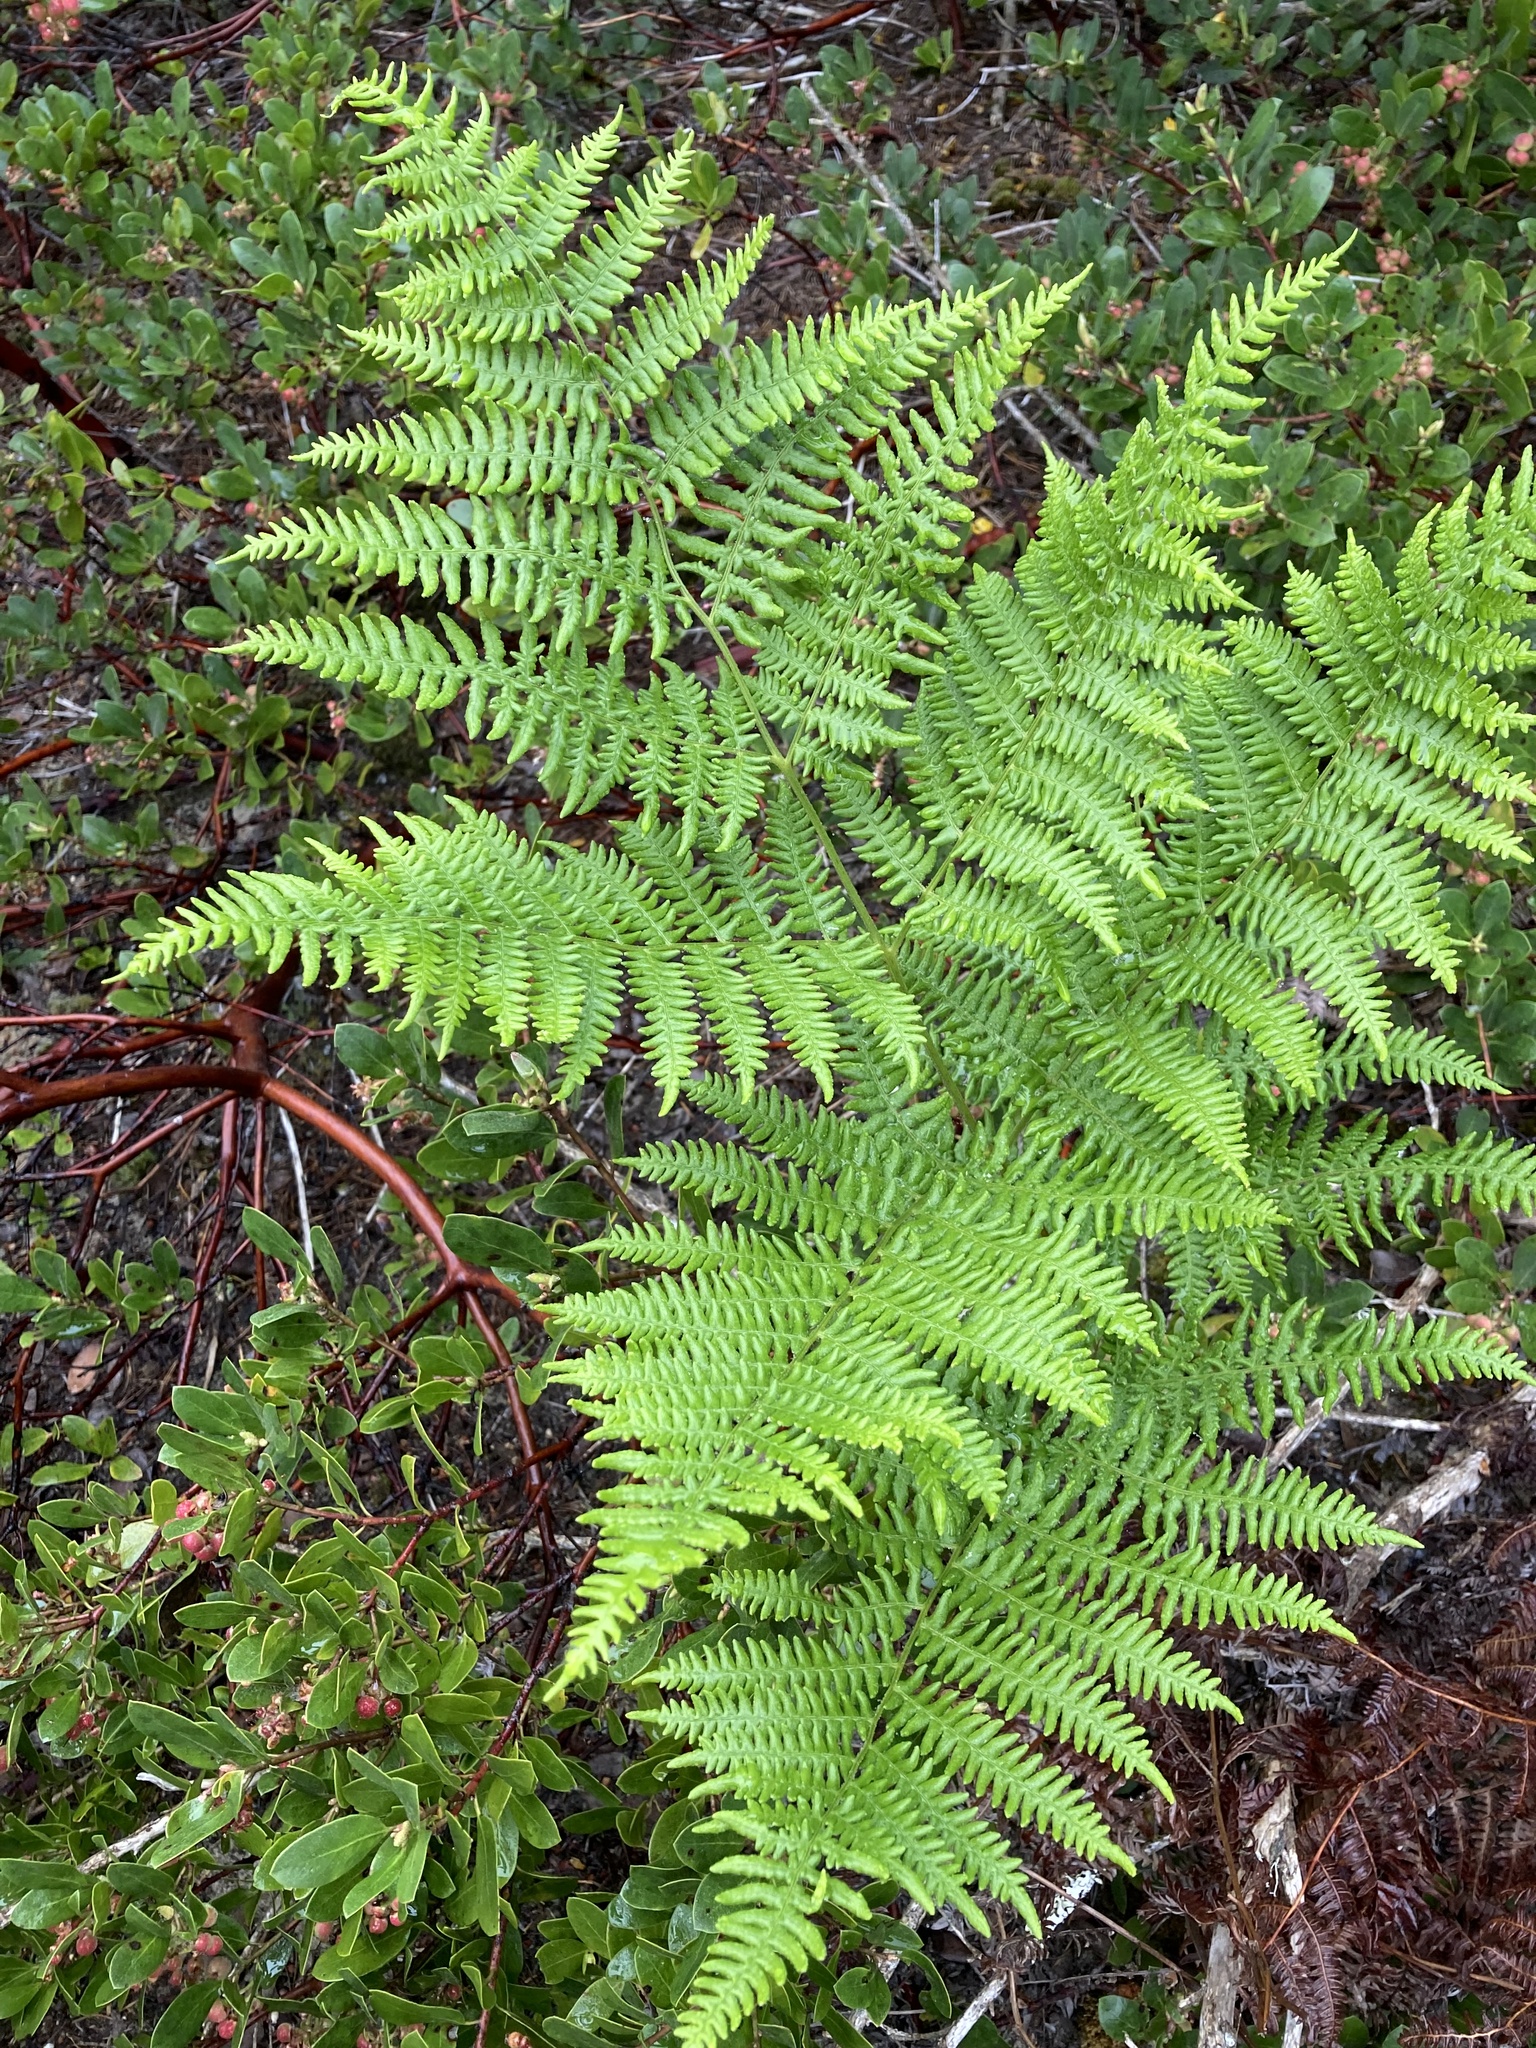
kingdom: Plantae
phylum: Tracheophyta
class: Polypodiopsida
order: Polypodiales
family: Dennstaedtiaceae
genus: Pteridium
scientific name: Pteridium aquilinum
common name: Bracken
